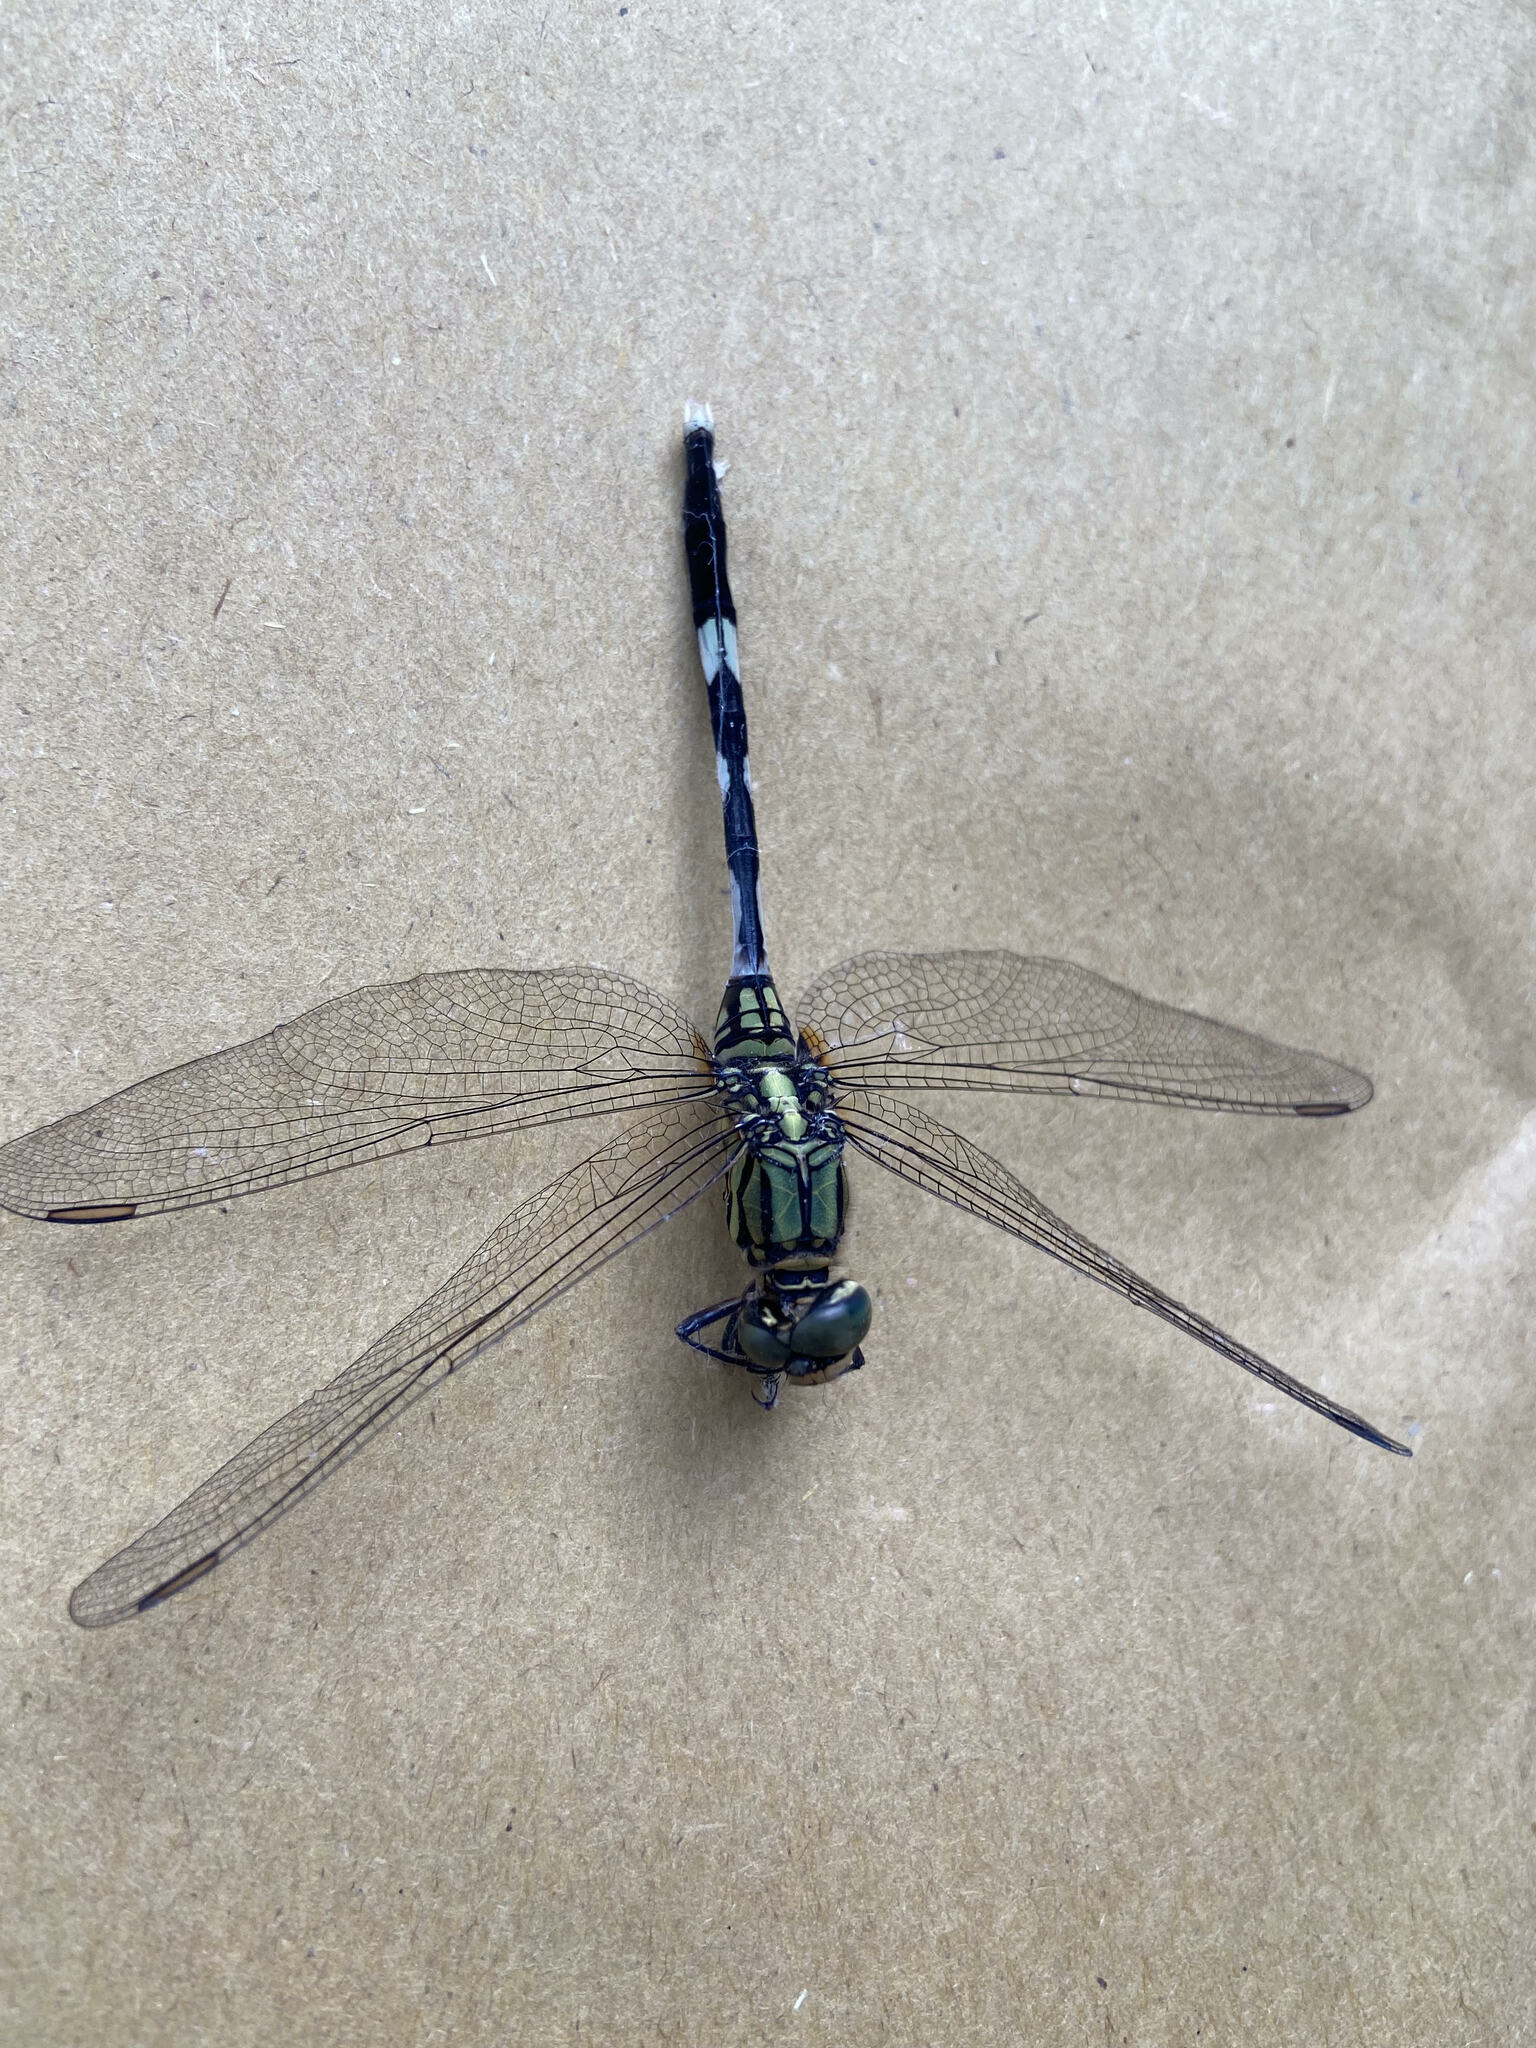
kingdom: Animalia
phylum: Arthropoda
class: Insecta
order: Odonata
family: Libellulidae
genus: Orthetrum
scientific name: Orthetrum sabina
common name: Slender skimmer
